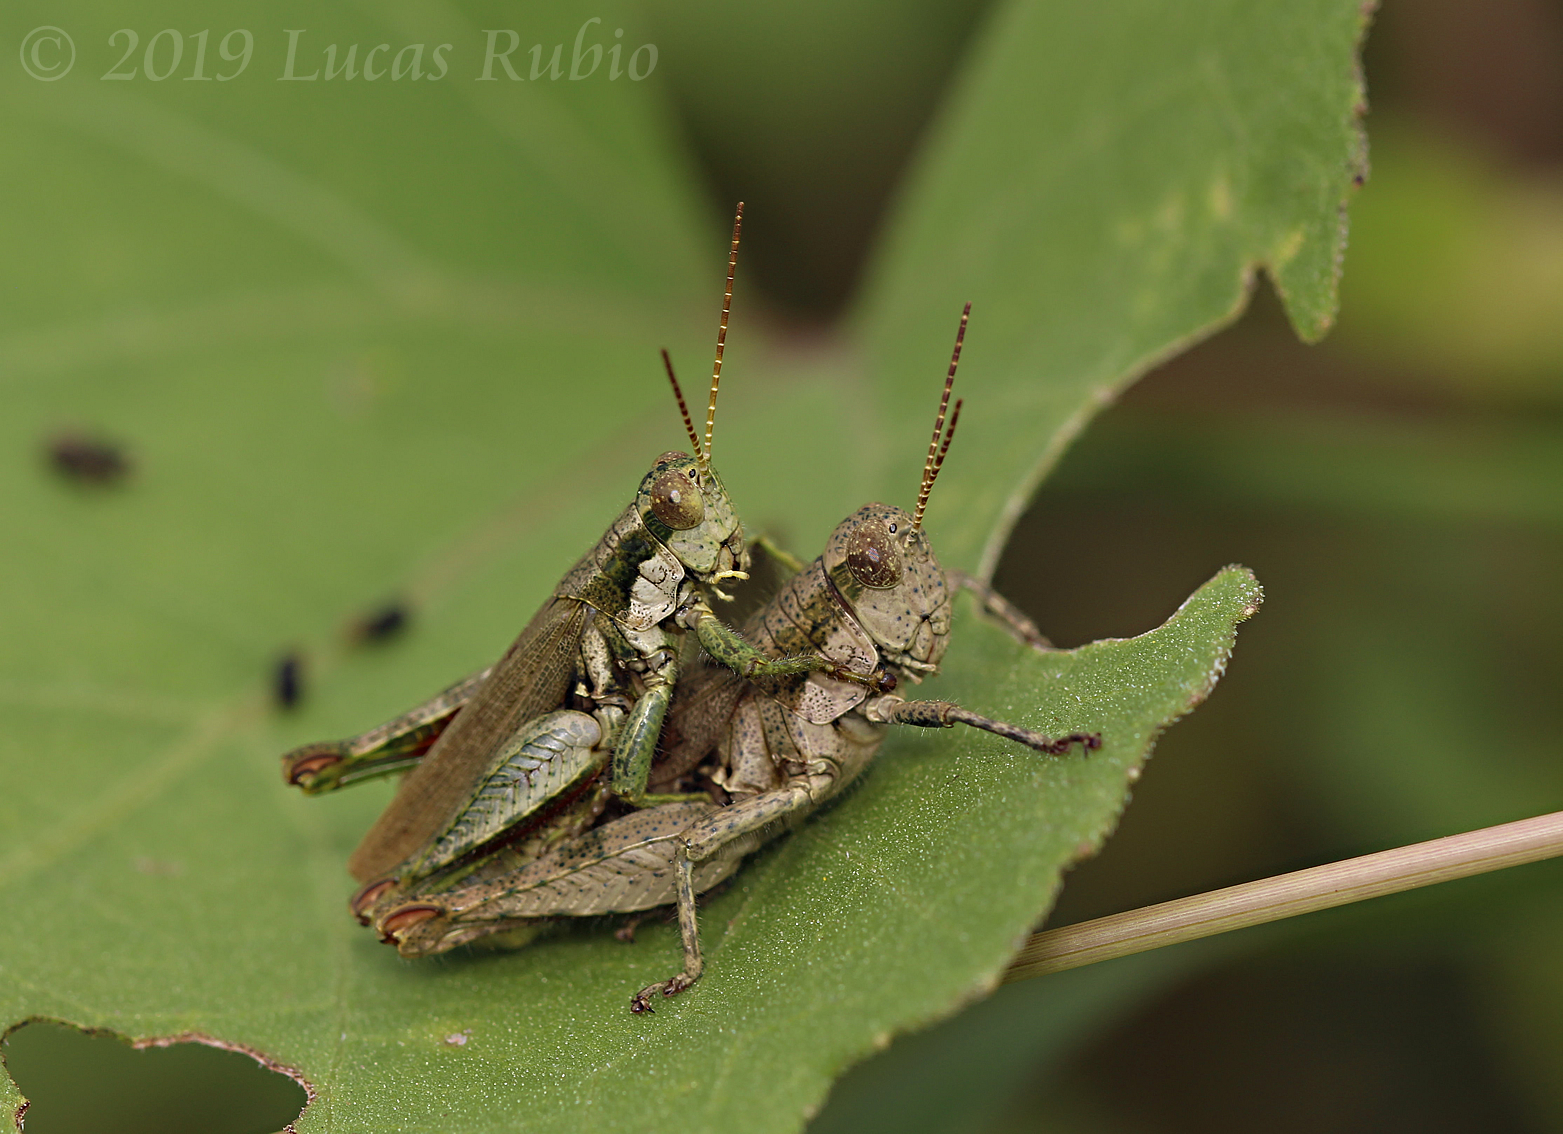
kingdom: Animalia
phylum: Arthropoda
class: Insecta
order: Orthoptera
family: Acrididae
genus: Ronderosia
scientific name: Ronderosia bergii
